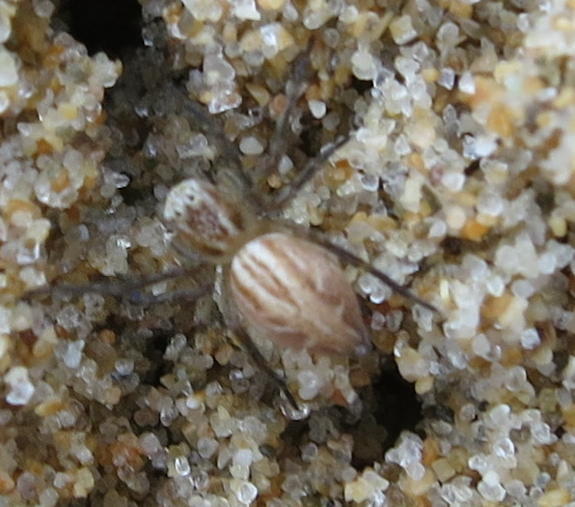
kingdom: Animalia
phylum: Arthropoda
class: Arachnida
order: Araneae
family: Oxyopidae
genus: Oxyopes
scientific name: Oxyopes gracilipes
